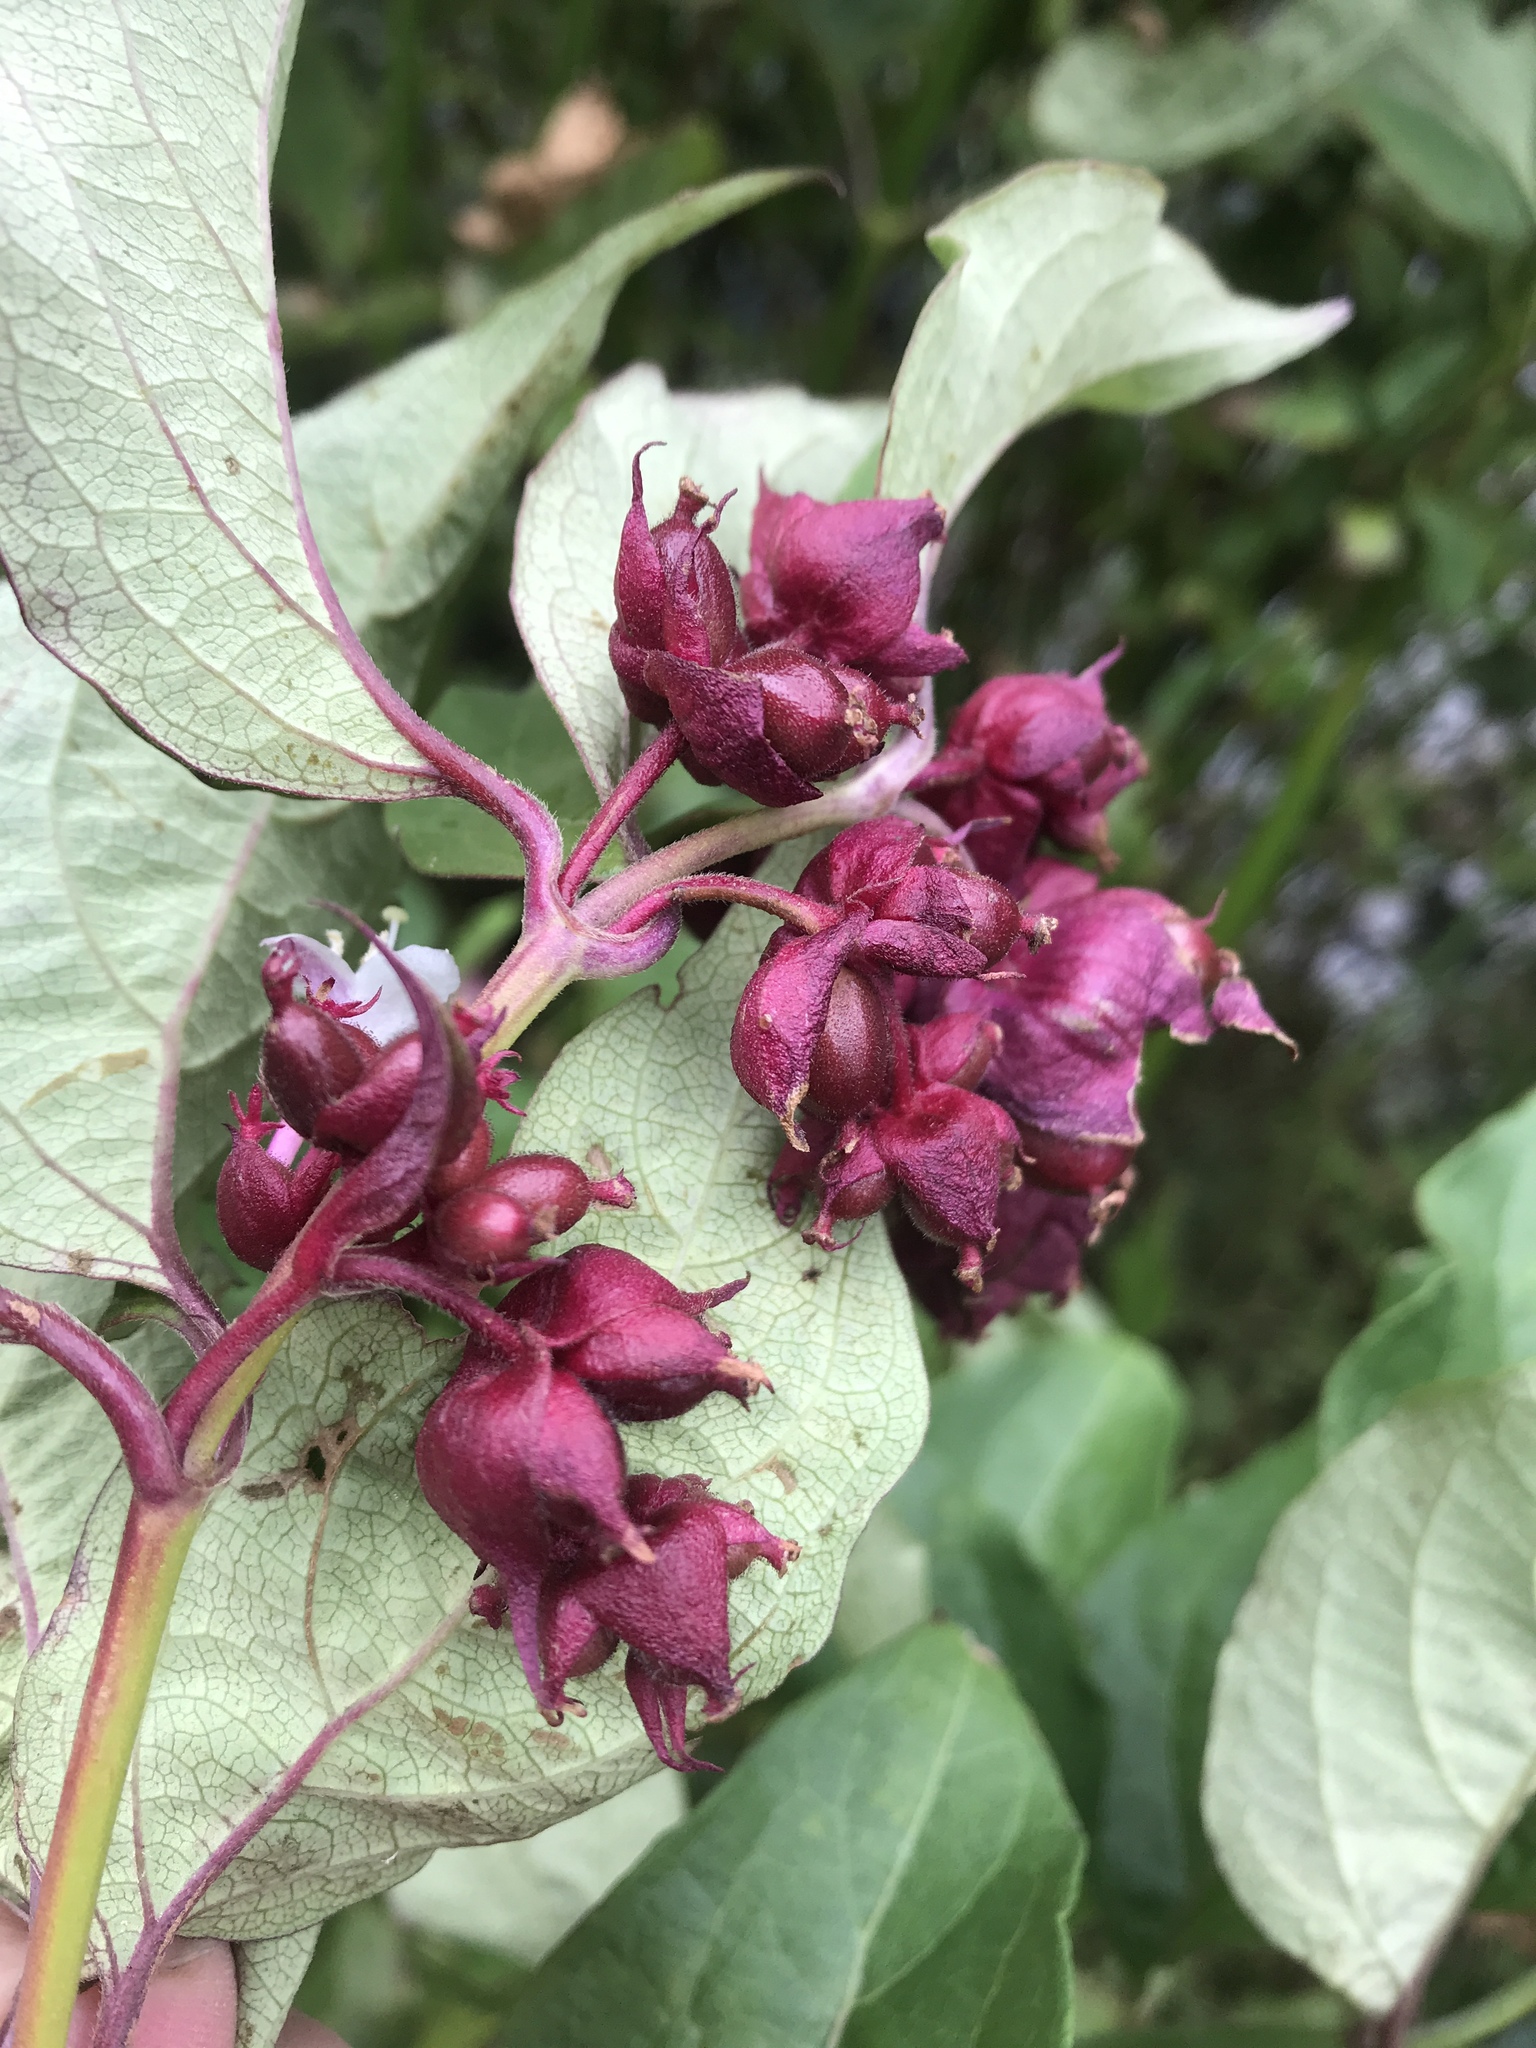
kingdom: Plantae
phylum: Tracheophyta
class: Magnoliopsida
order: Dipsacales
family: Caprifoliaceae
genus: Leycesteria
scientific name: Leycesteria formosa
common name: Himalayan honeysuckle
